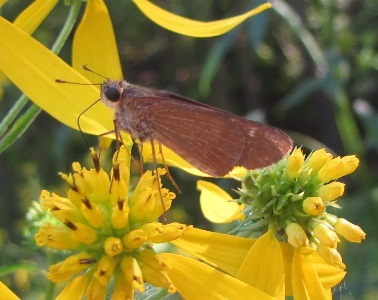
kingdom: Animalia
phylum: Arthropoda
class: Insecta
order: Lepidoptera
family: Hesperiidae
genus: Panoquina
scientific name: Panoquina ocola
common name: Ocola skipper
